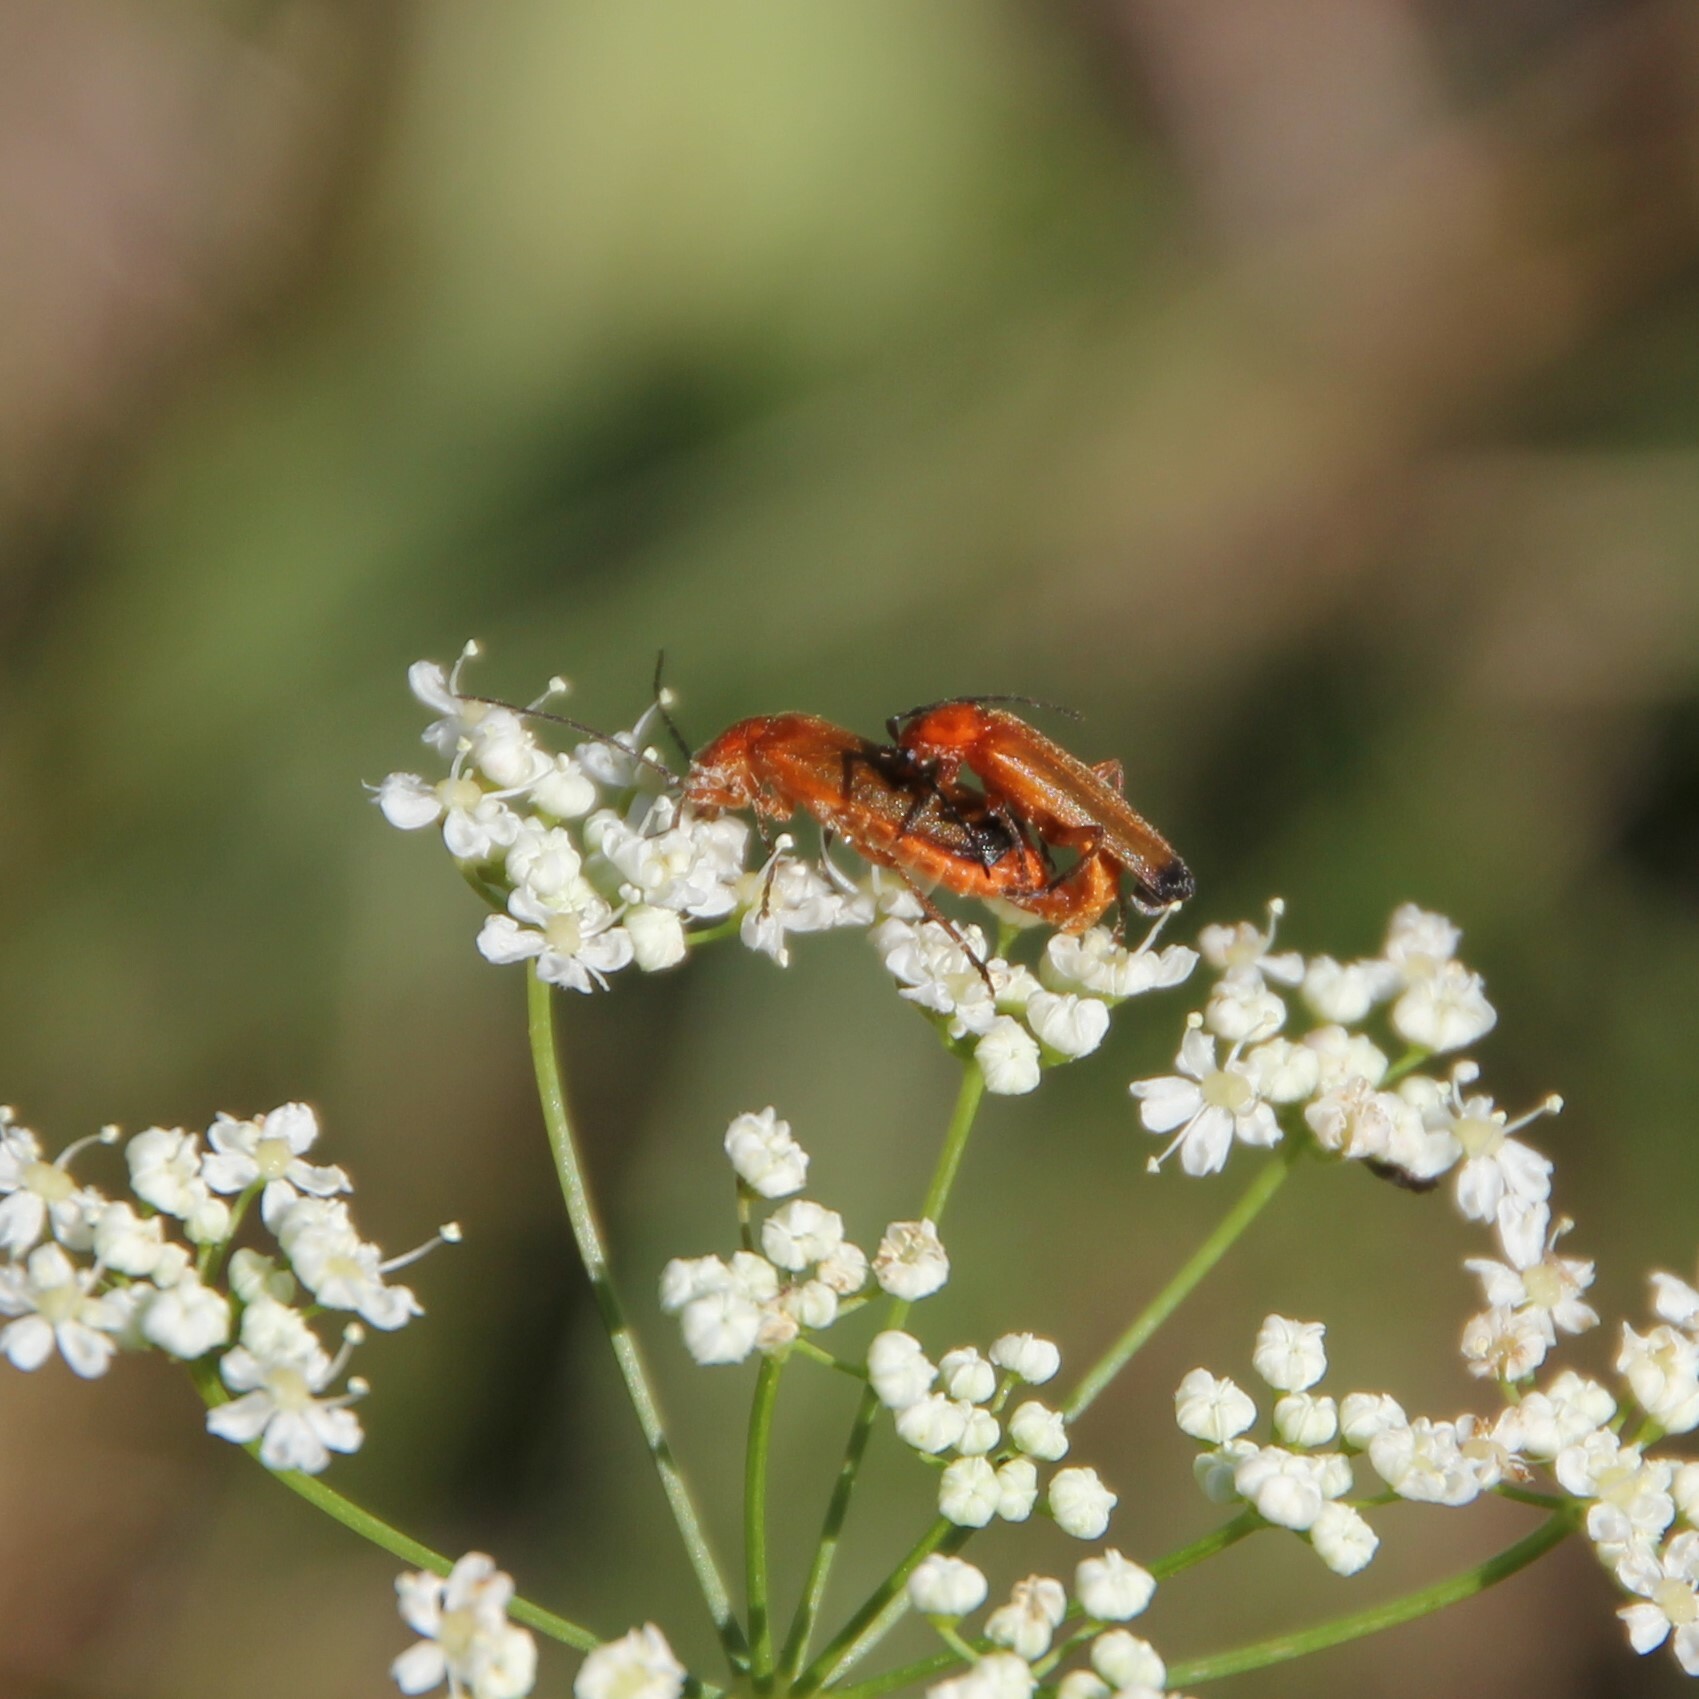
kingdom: Animalia
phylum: Arthropoda
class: Insecta
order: Coleoptera
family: Cantharidae
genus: Rhagonycha
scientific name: Rhagonycha fulva
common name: Common red soldier beetle
